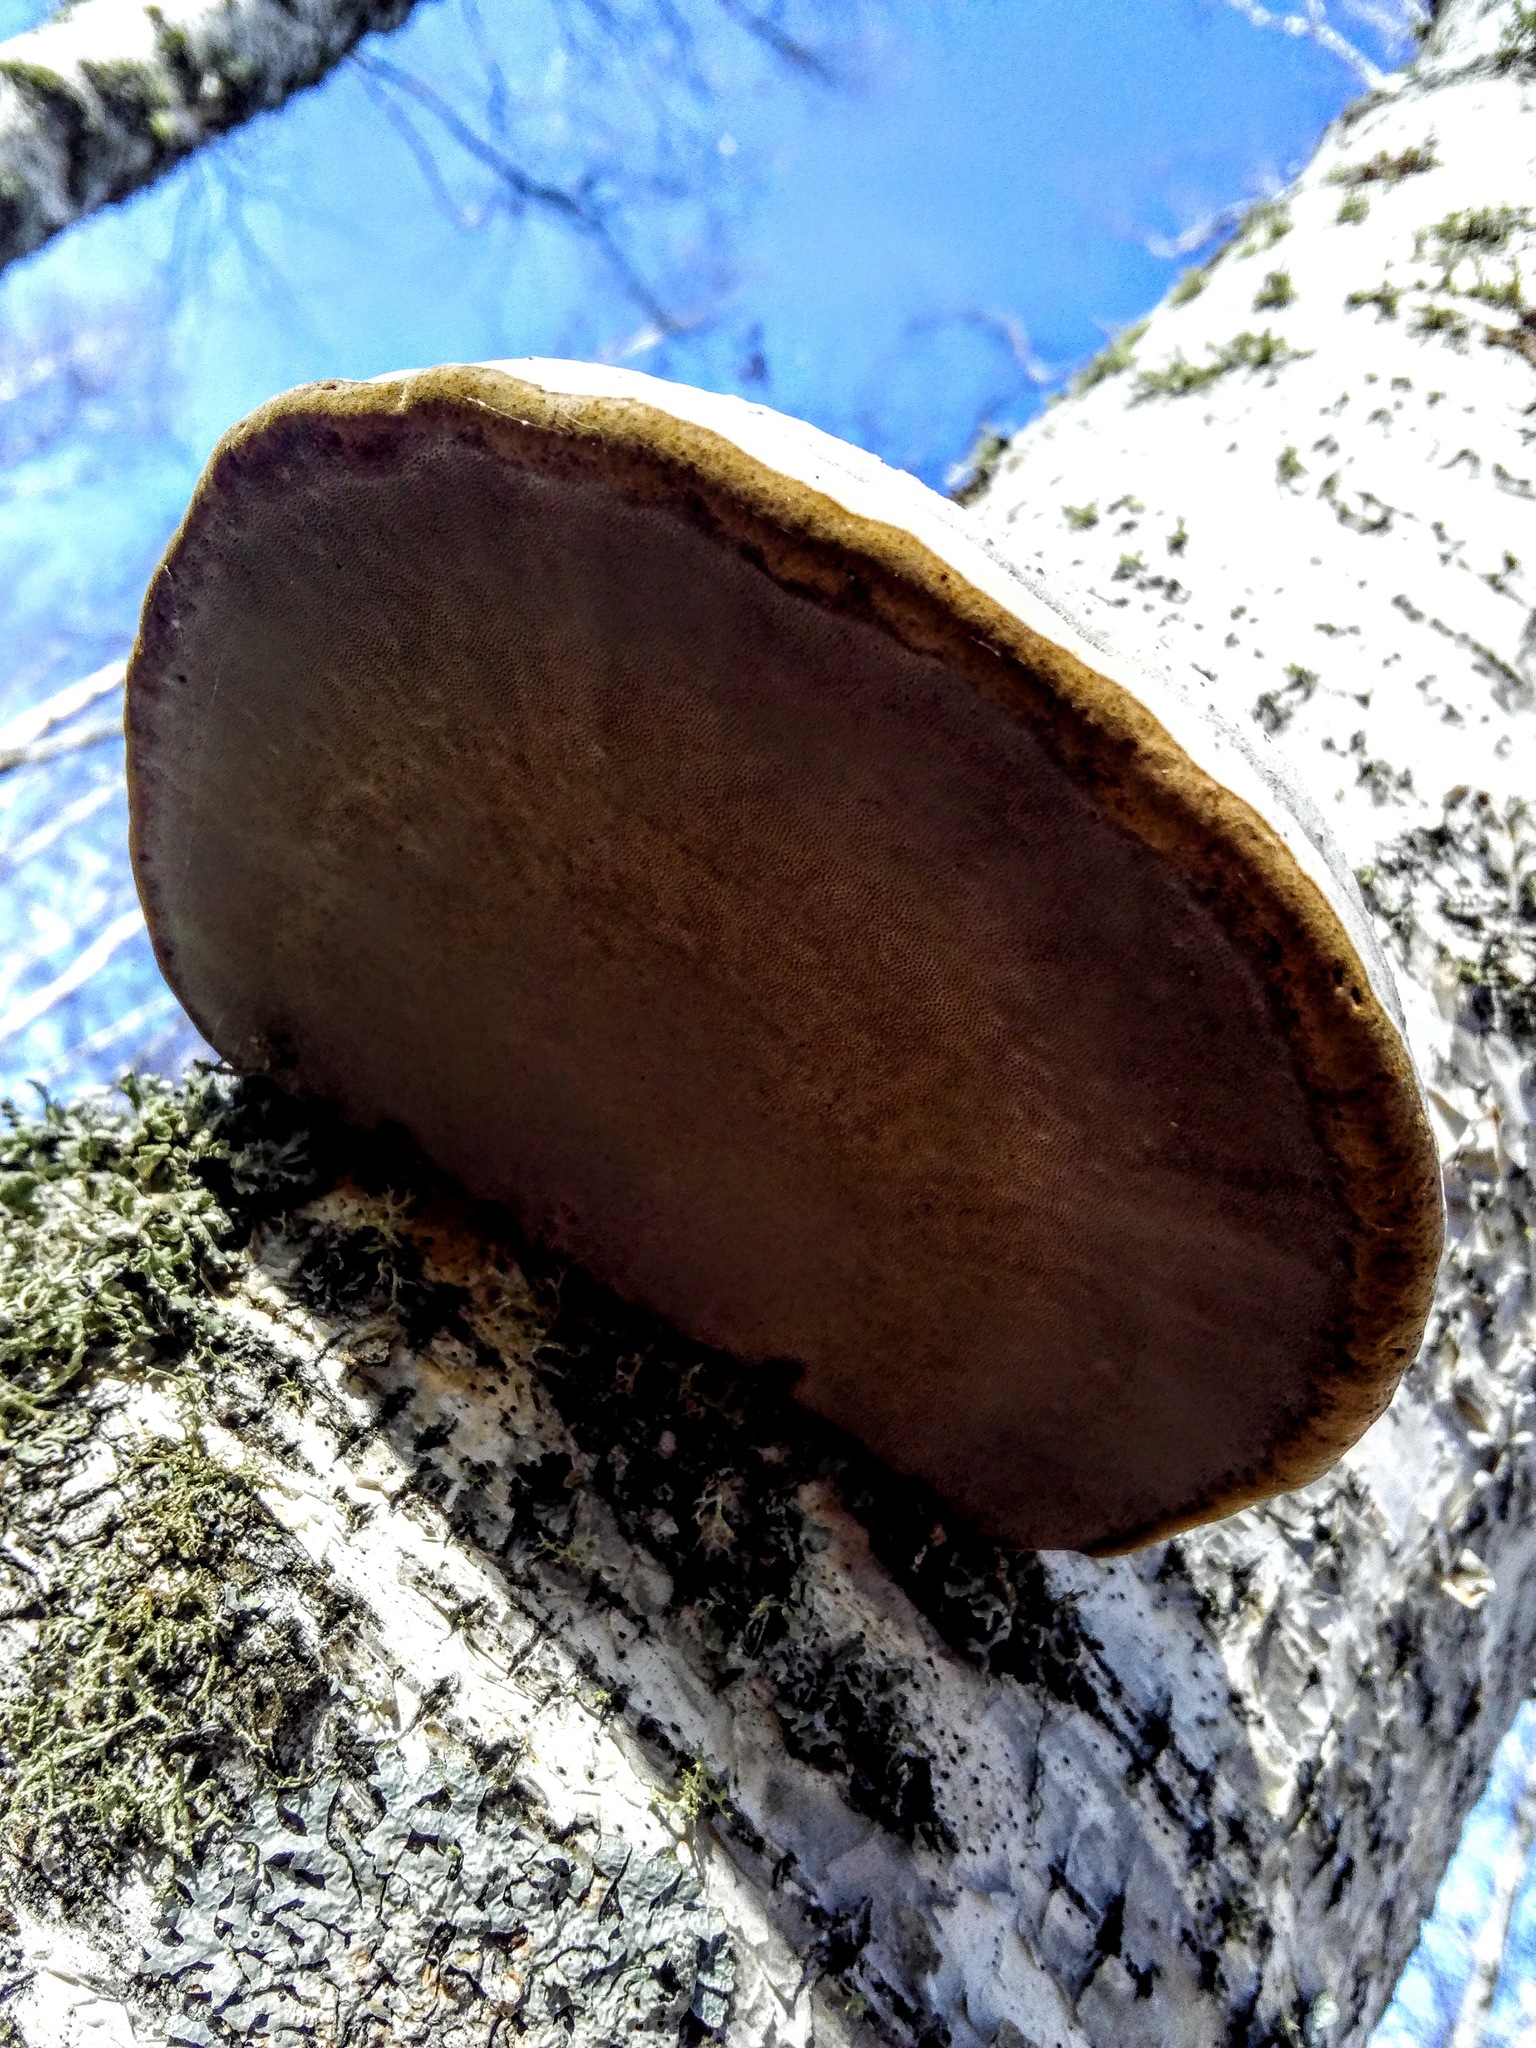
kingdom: Fungi
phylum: Basidiomycota
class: Agaricomycetes
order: Polyporales
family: Polyporaceae
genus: Fomes
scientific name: Fomes fomentarius
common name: Hoof fungus
